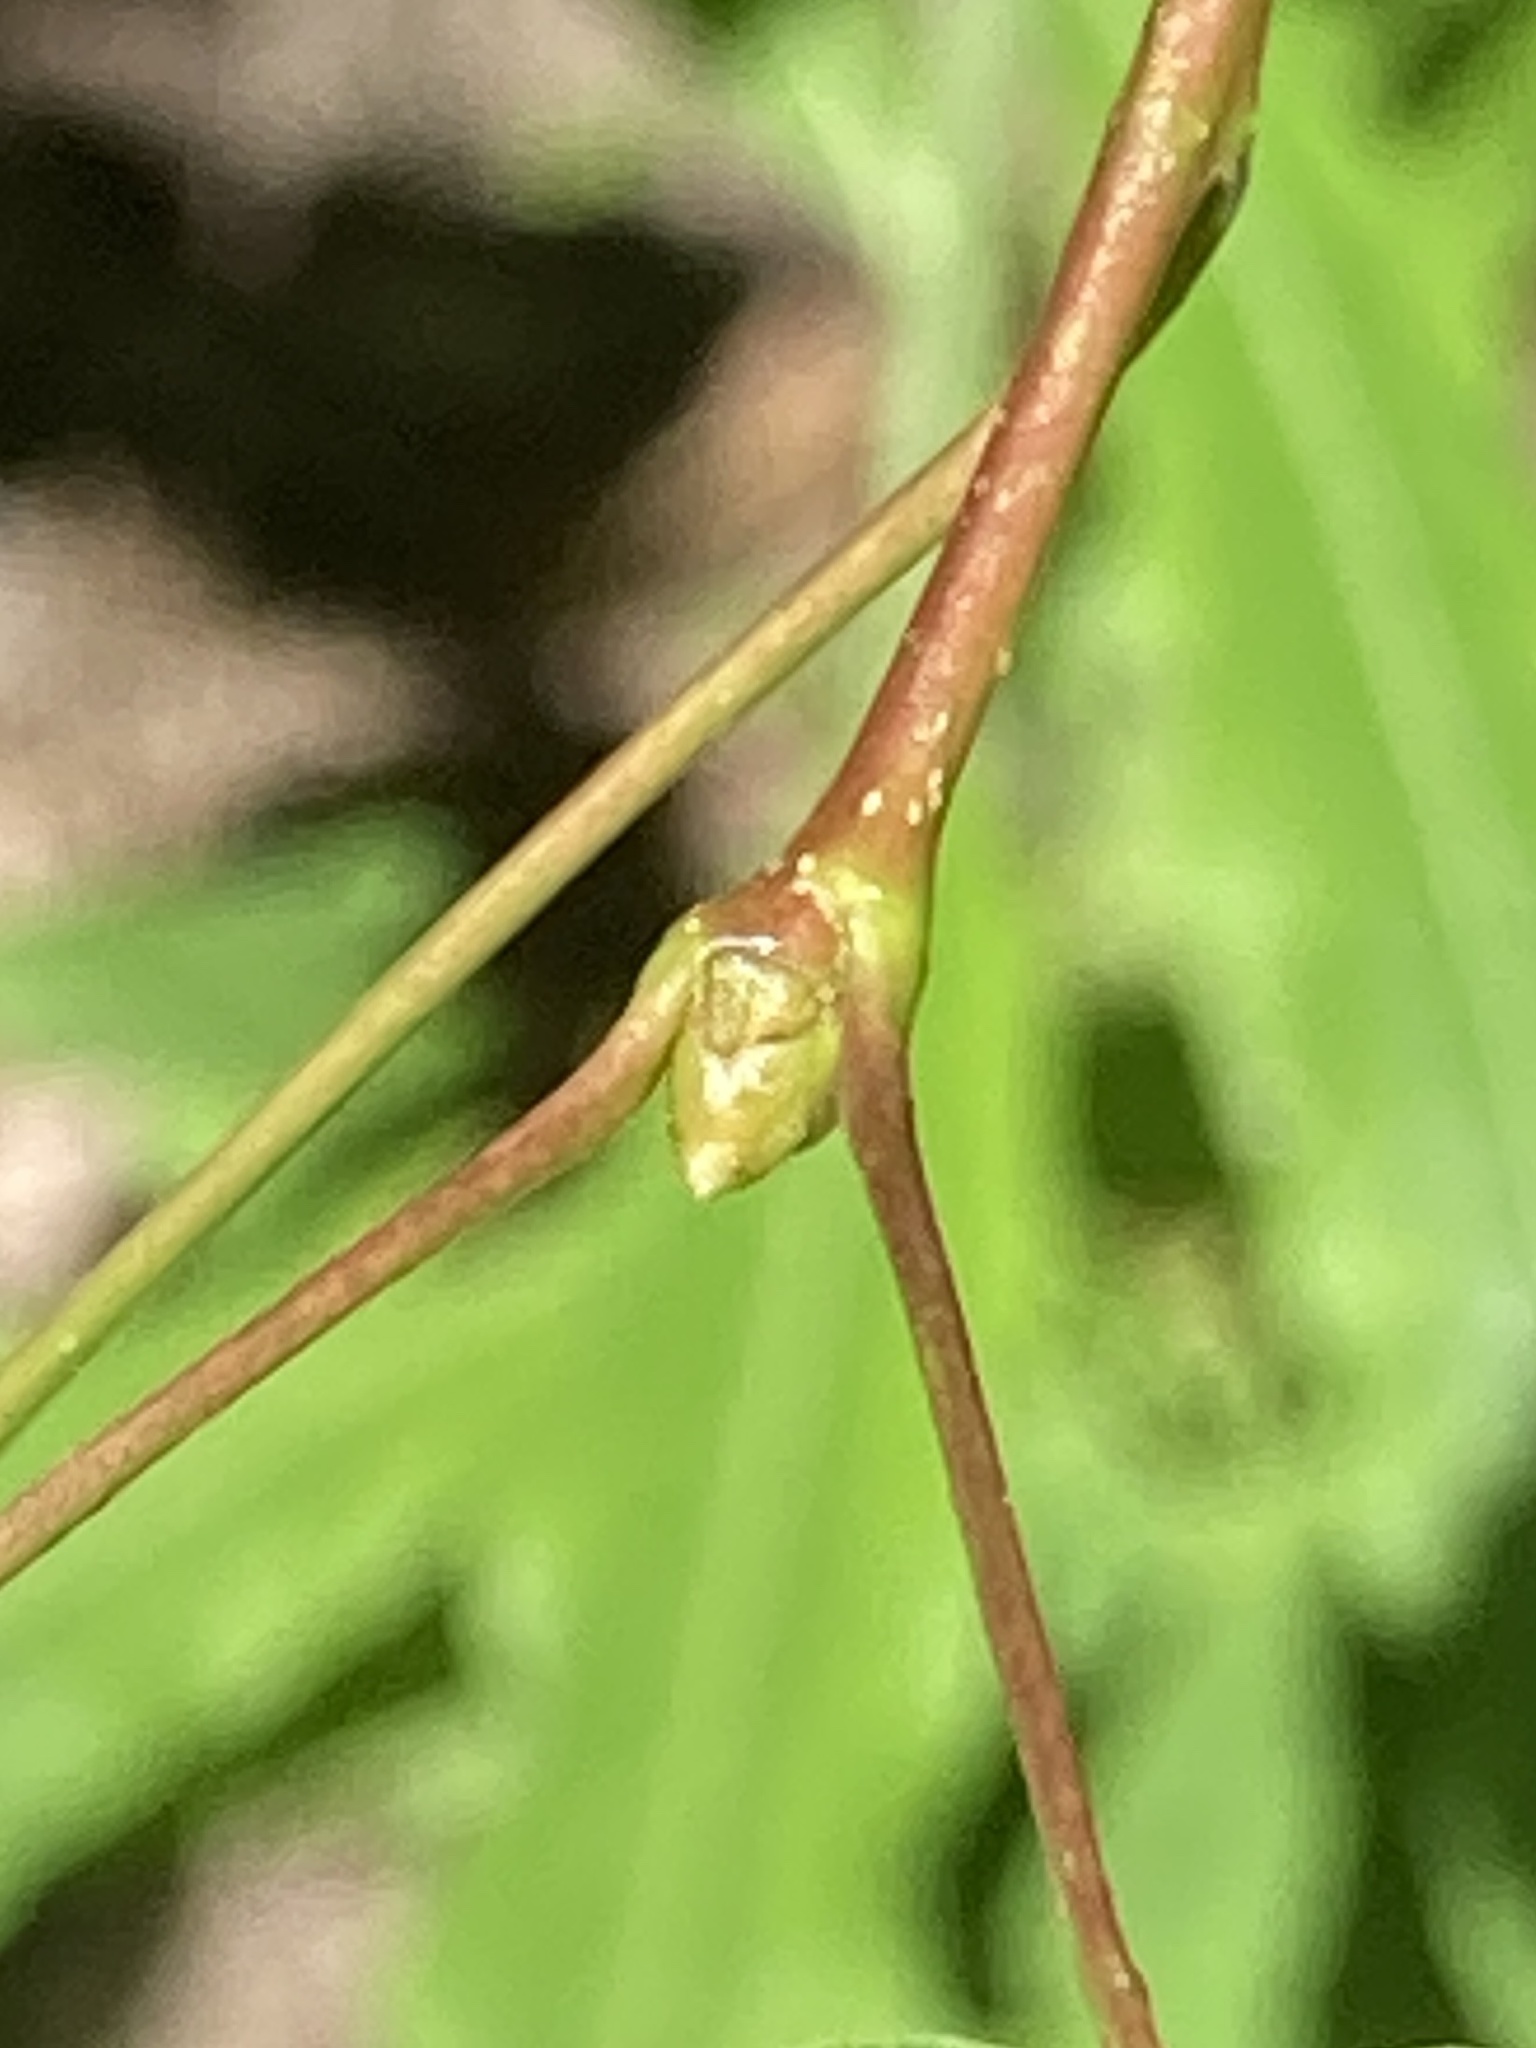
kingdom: Plantae
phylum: Tracheophyta
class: Magnoliopsida
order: Malpighiales
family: Salicaceae
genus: Populus
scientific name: Populus tremula
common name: European aspen
